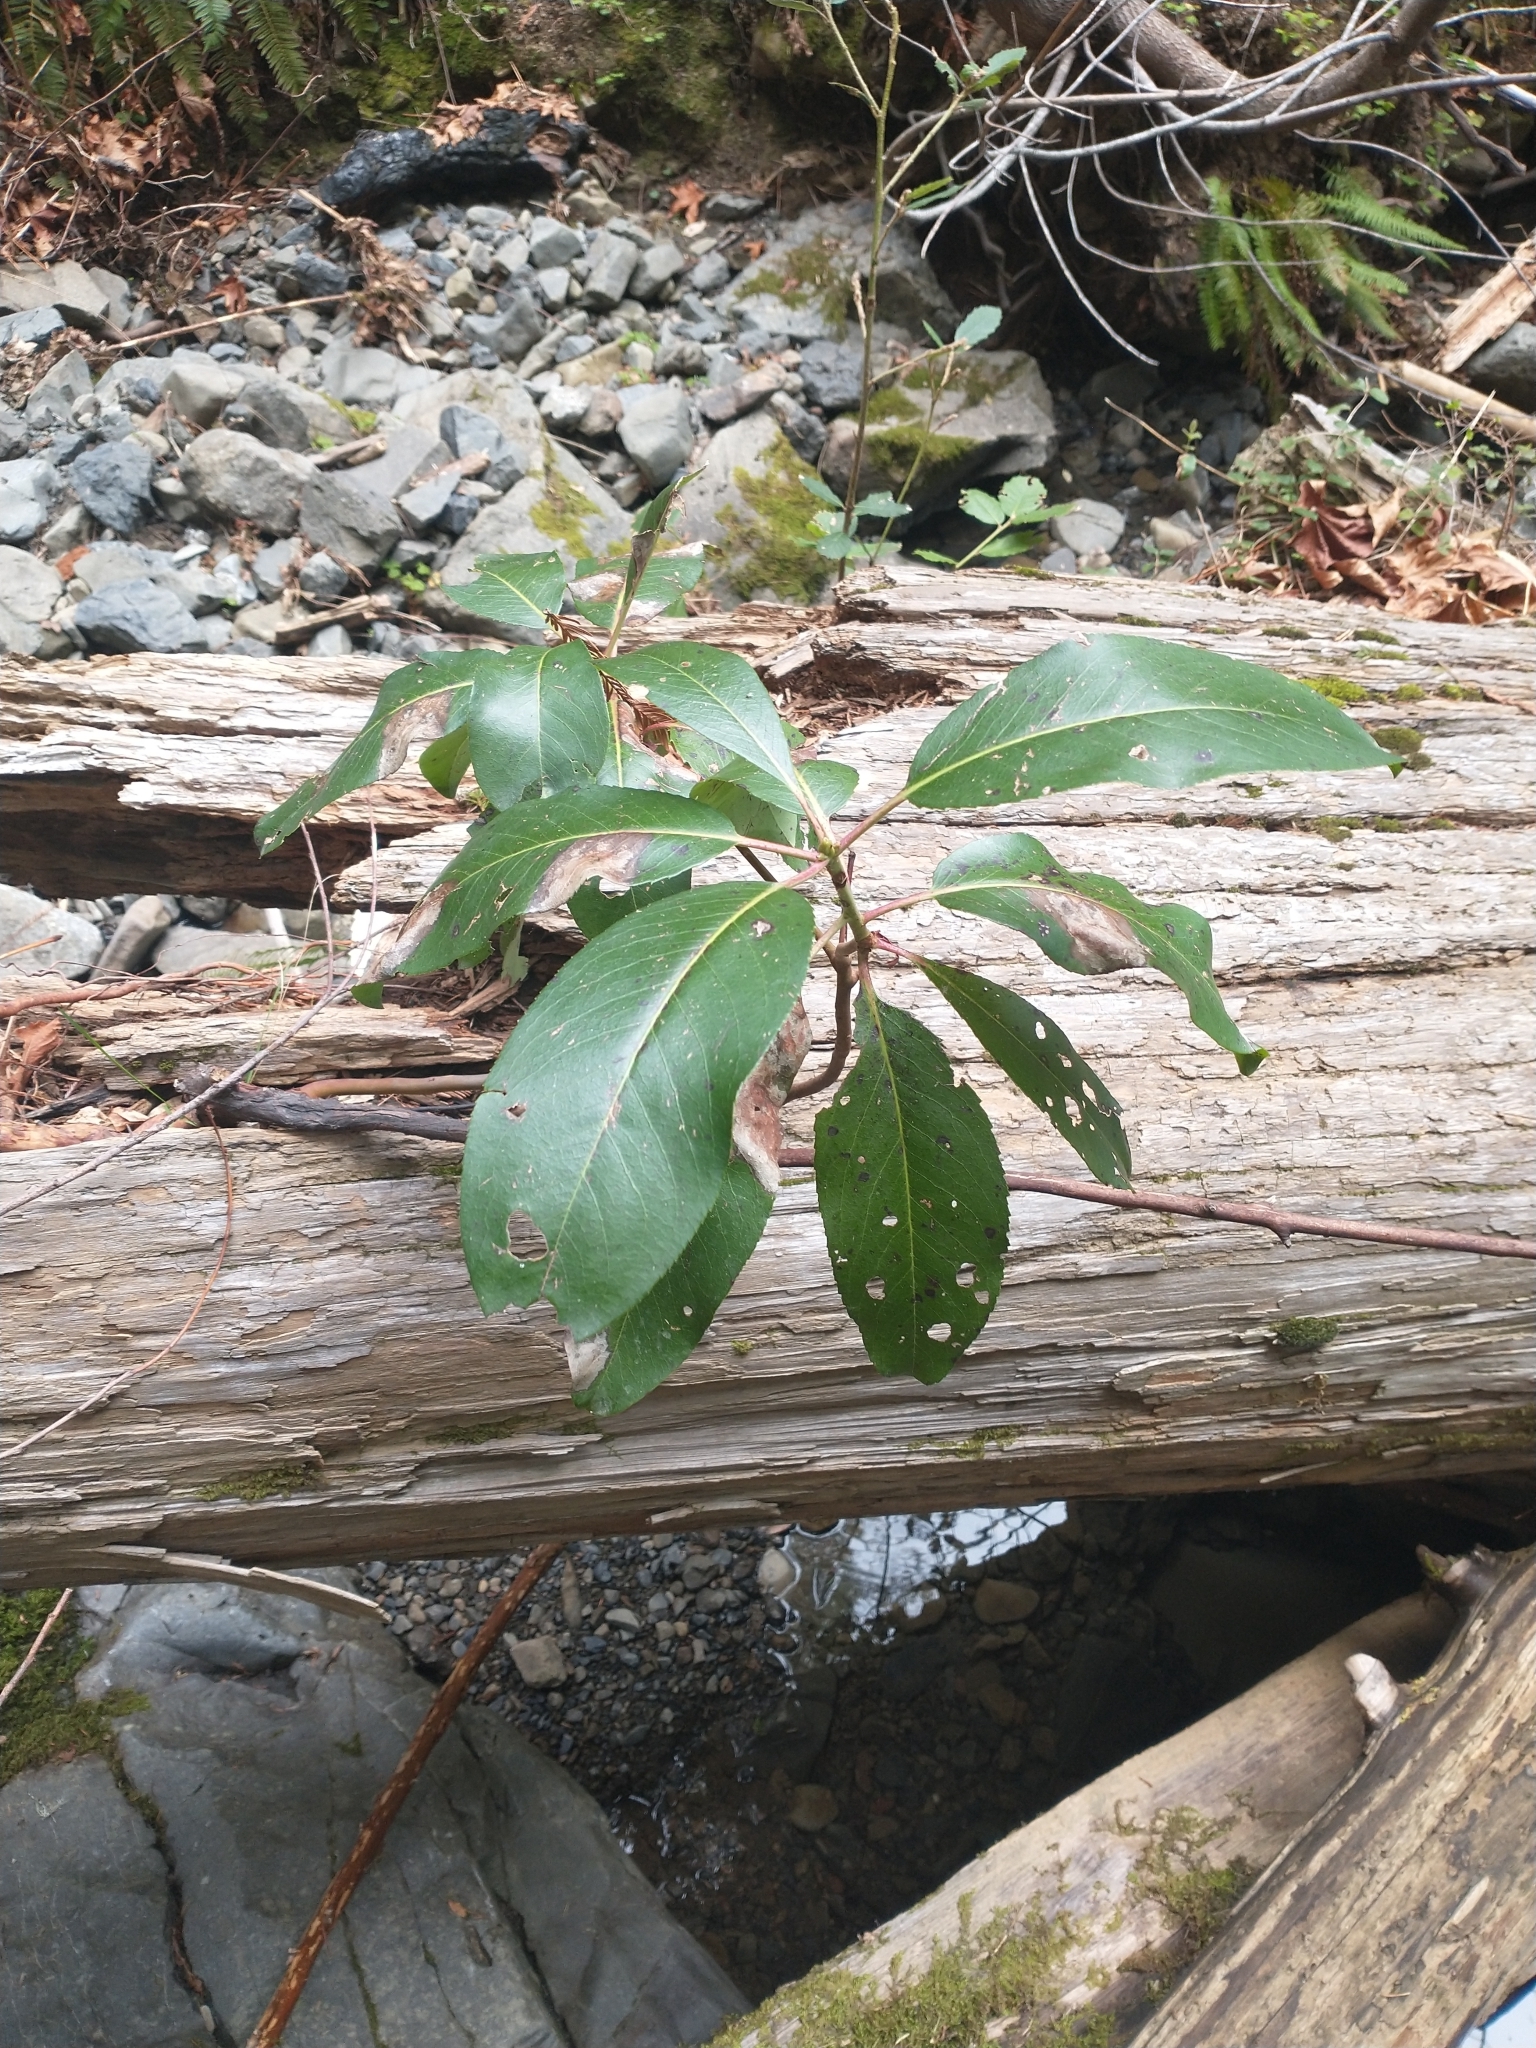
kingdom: Plantae
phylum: Tracheophyta
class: Magnoliopsida
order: Ericales
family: Ericaceae
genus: Arbutus
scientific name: Arbutus menziesii
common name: Pacific madrone
